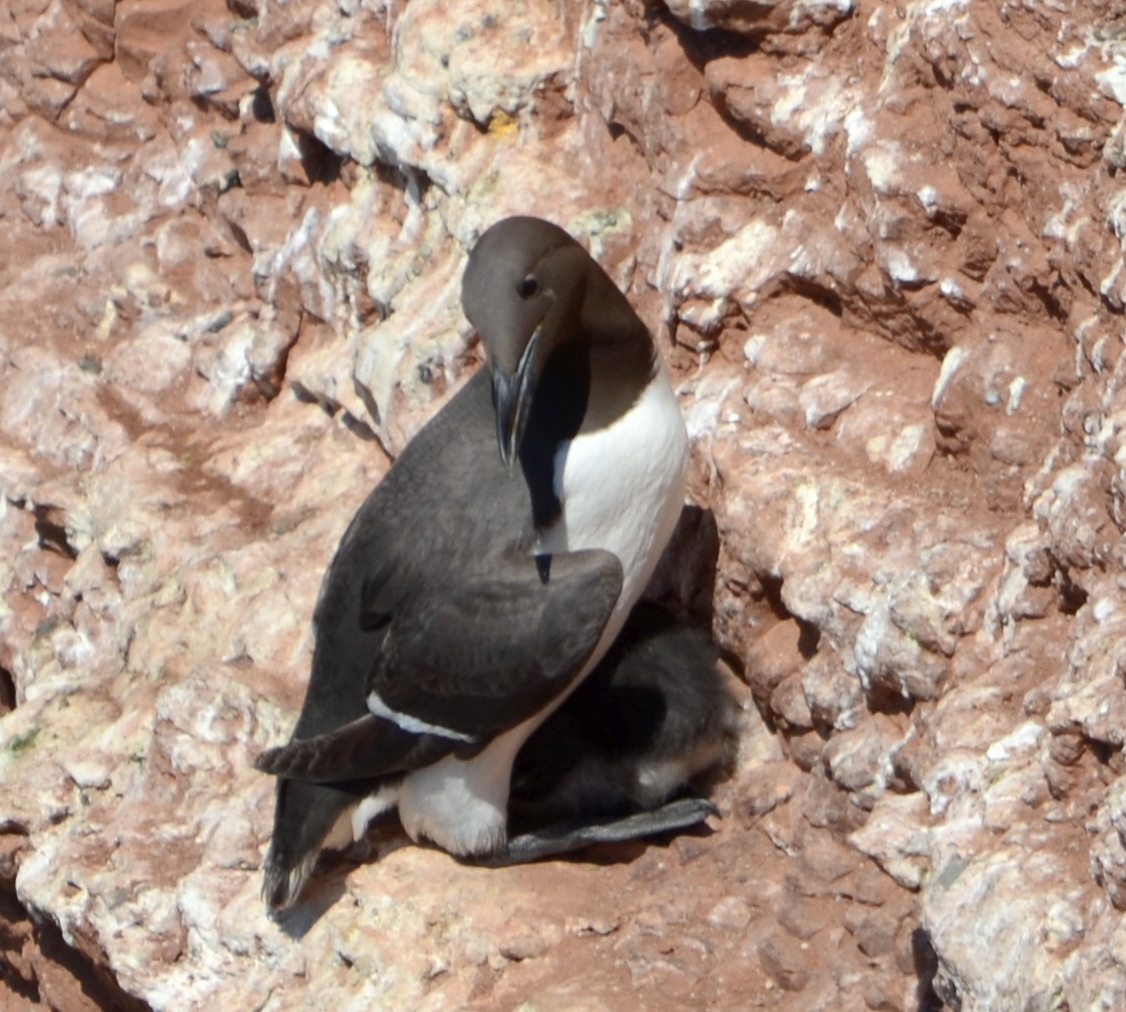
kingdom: Animalia
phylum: Chordata
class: Aves
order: Charadriiformes
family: Alcidae
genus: Uria
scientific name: Uria aalge
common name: Common murre
